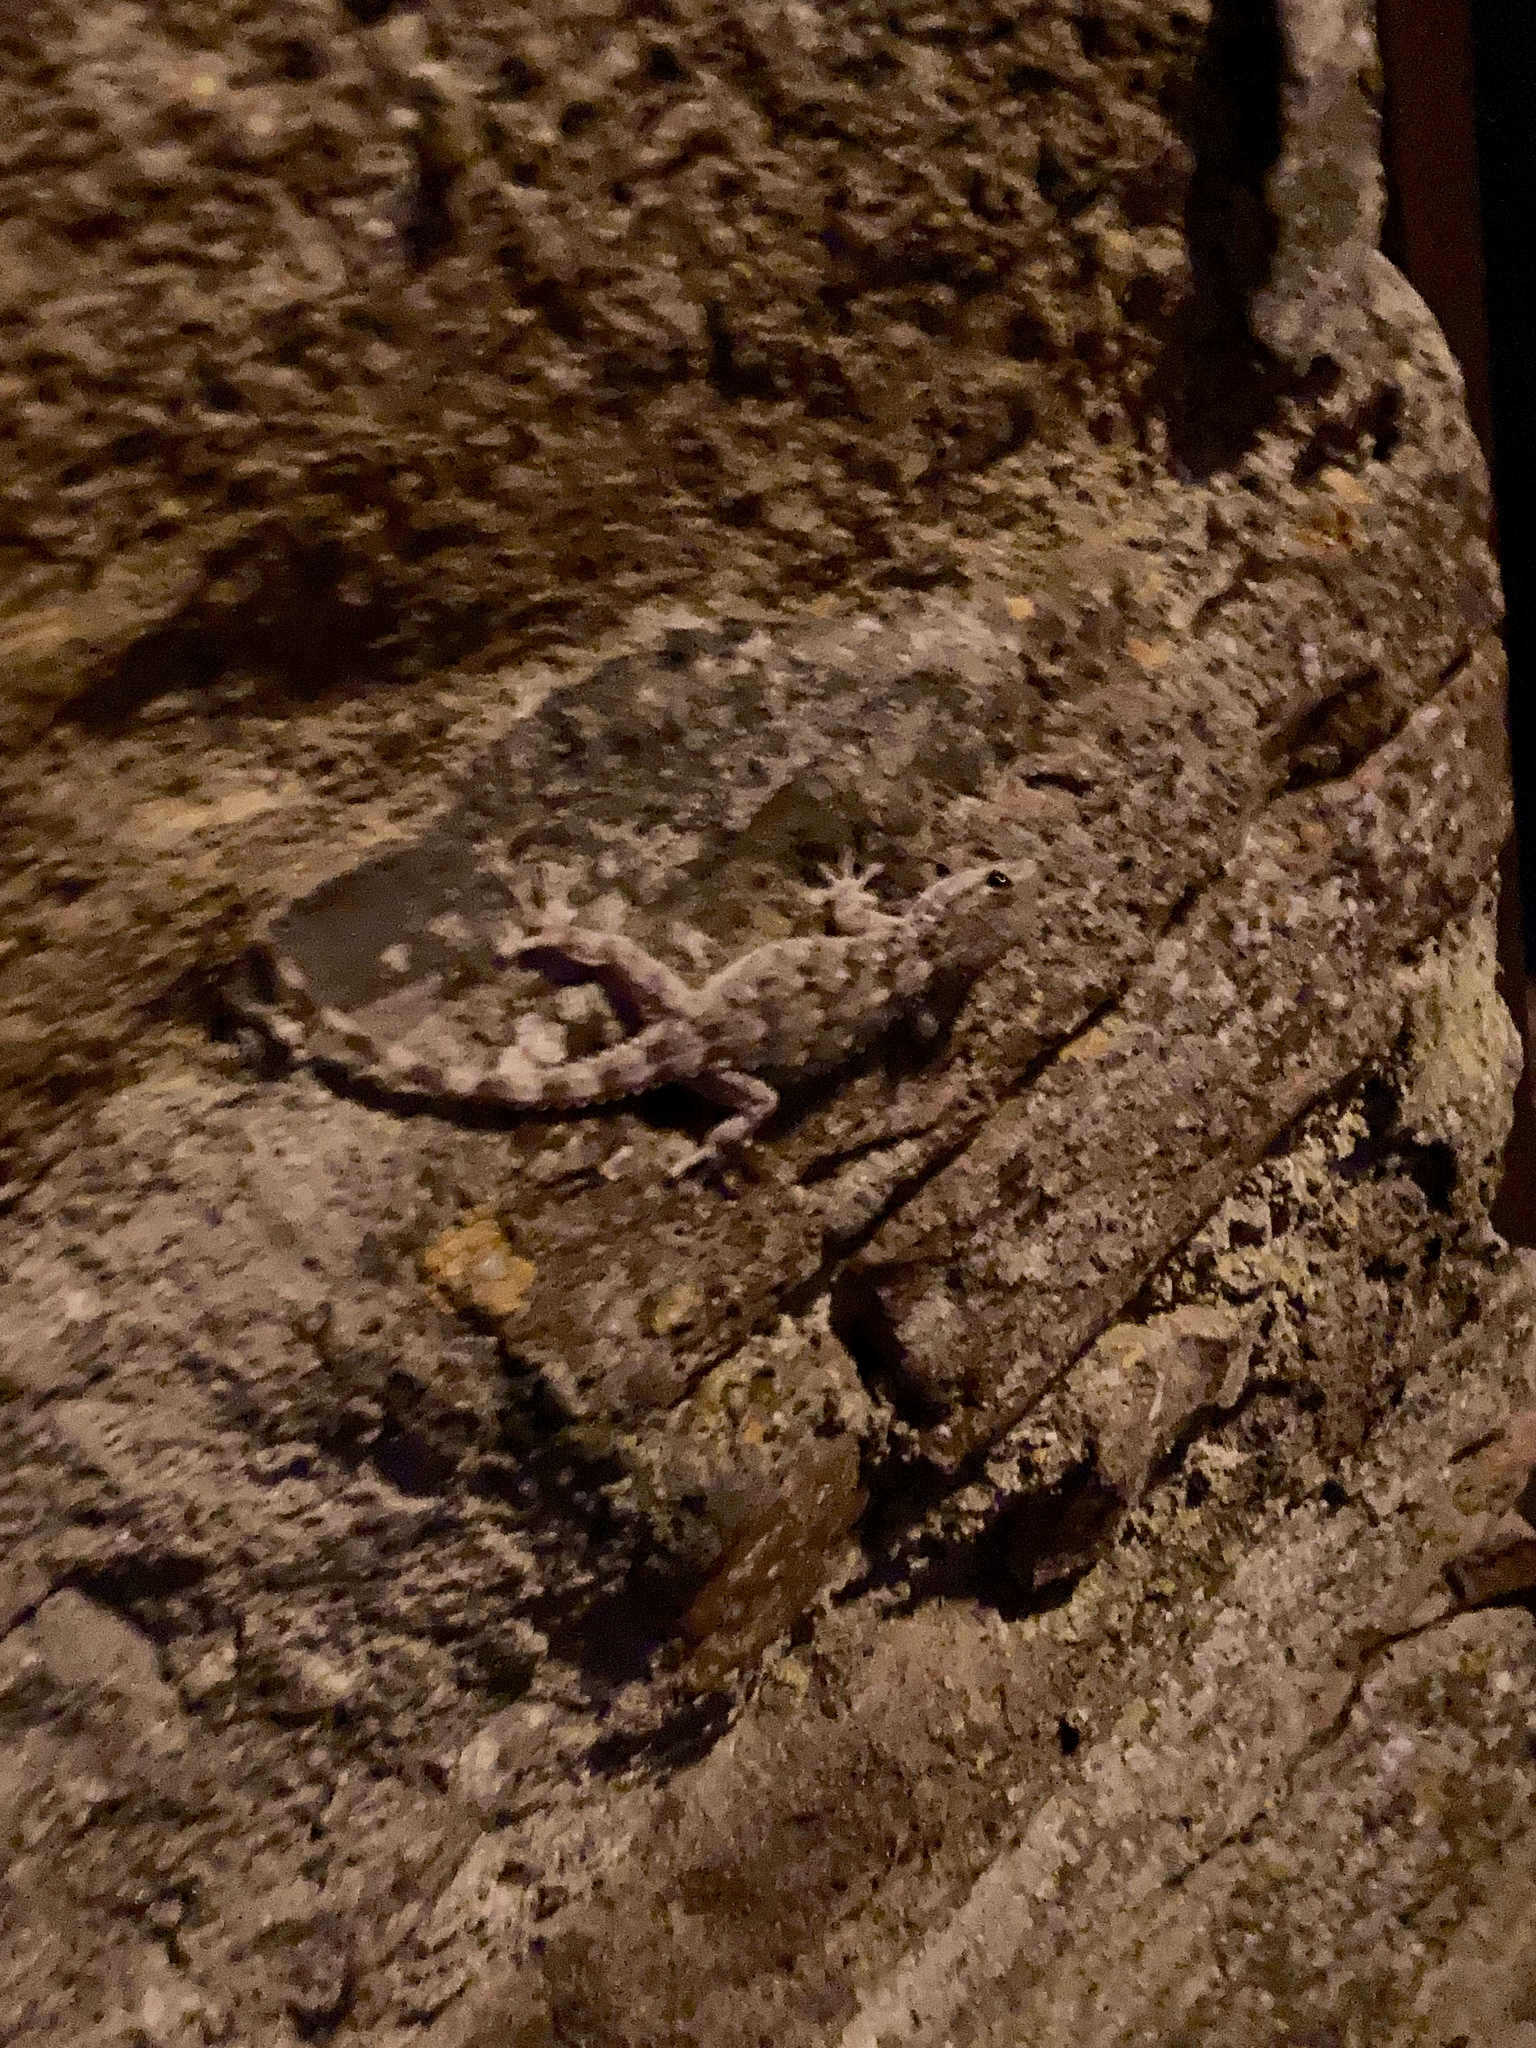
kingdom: Animalia
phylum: Chordata
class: Squamata
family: Phyllodactylidae
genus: Tarentola
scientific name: Tarentola mauritanica
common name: Moorish gecko
